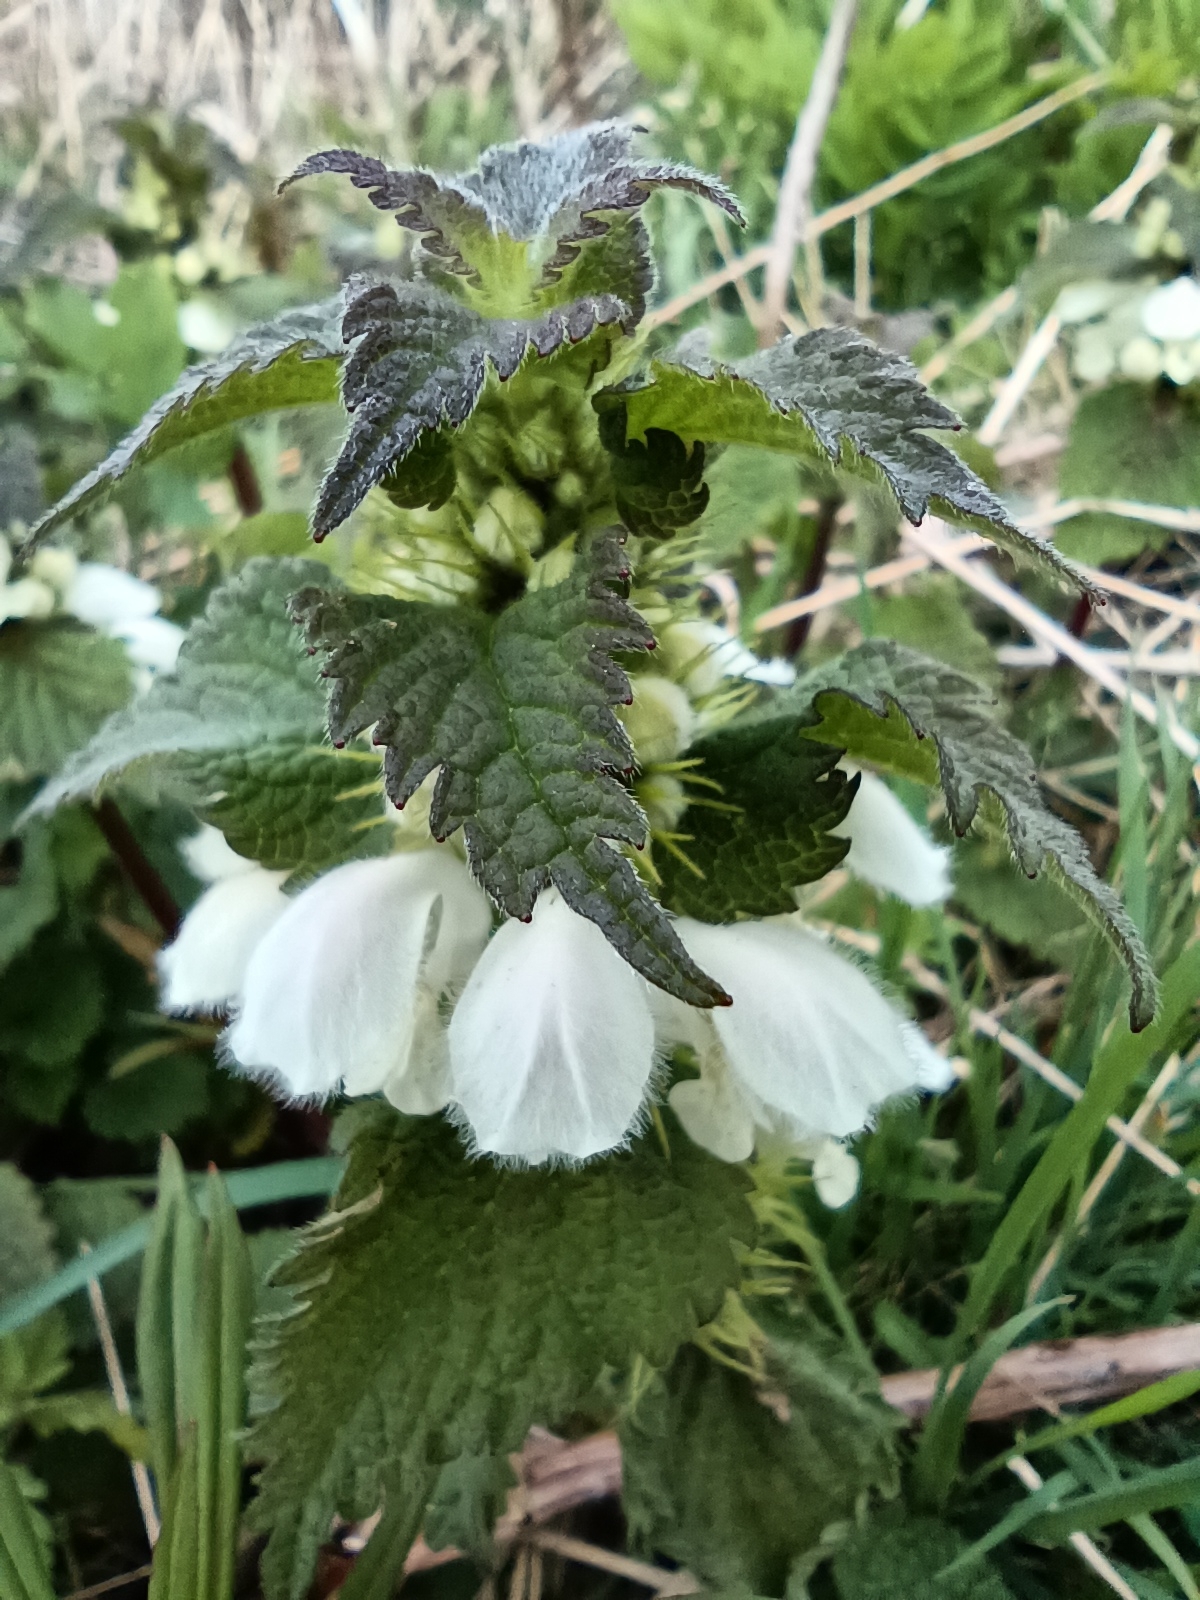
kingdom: Plantae
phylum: Tracheophyta
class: Magnoliopsida
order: Lamiales
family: Lamiaceae
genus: Lamium
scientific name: Lamium album
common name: White dead-nettle
